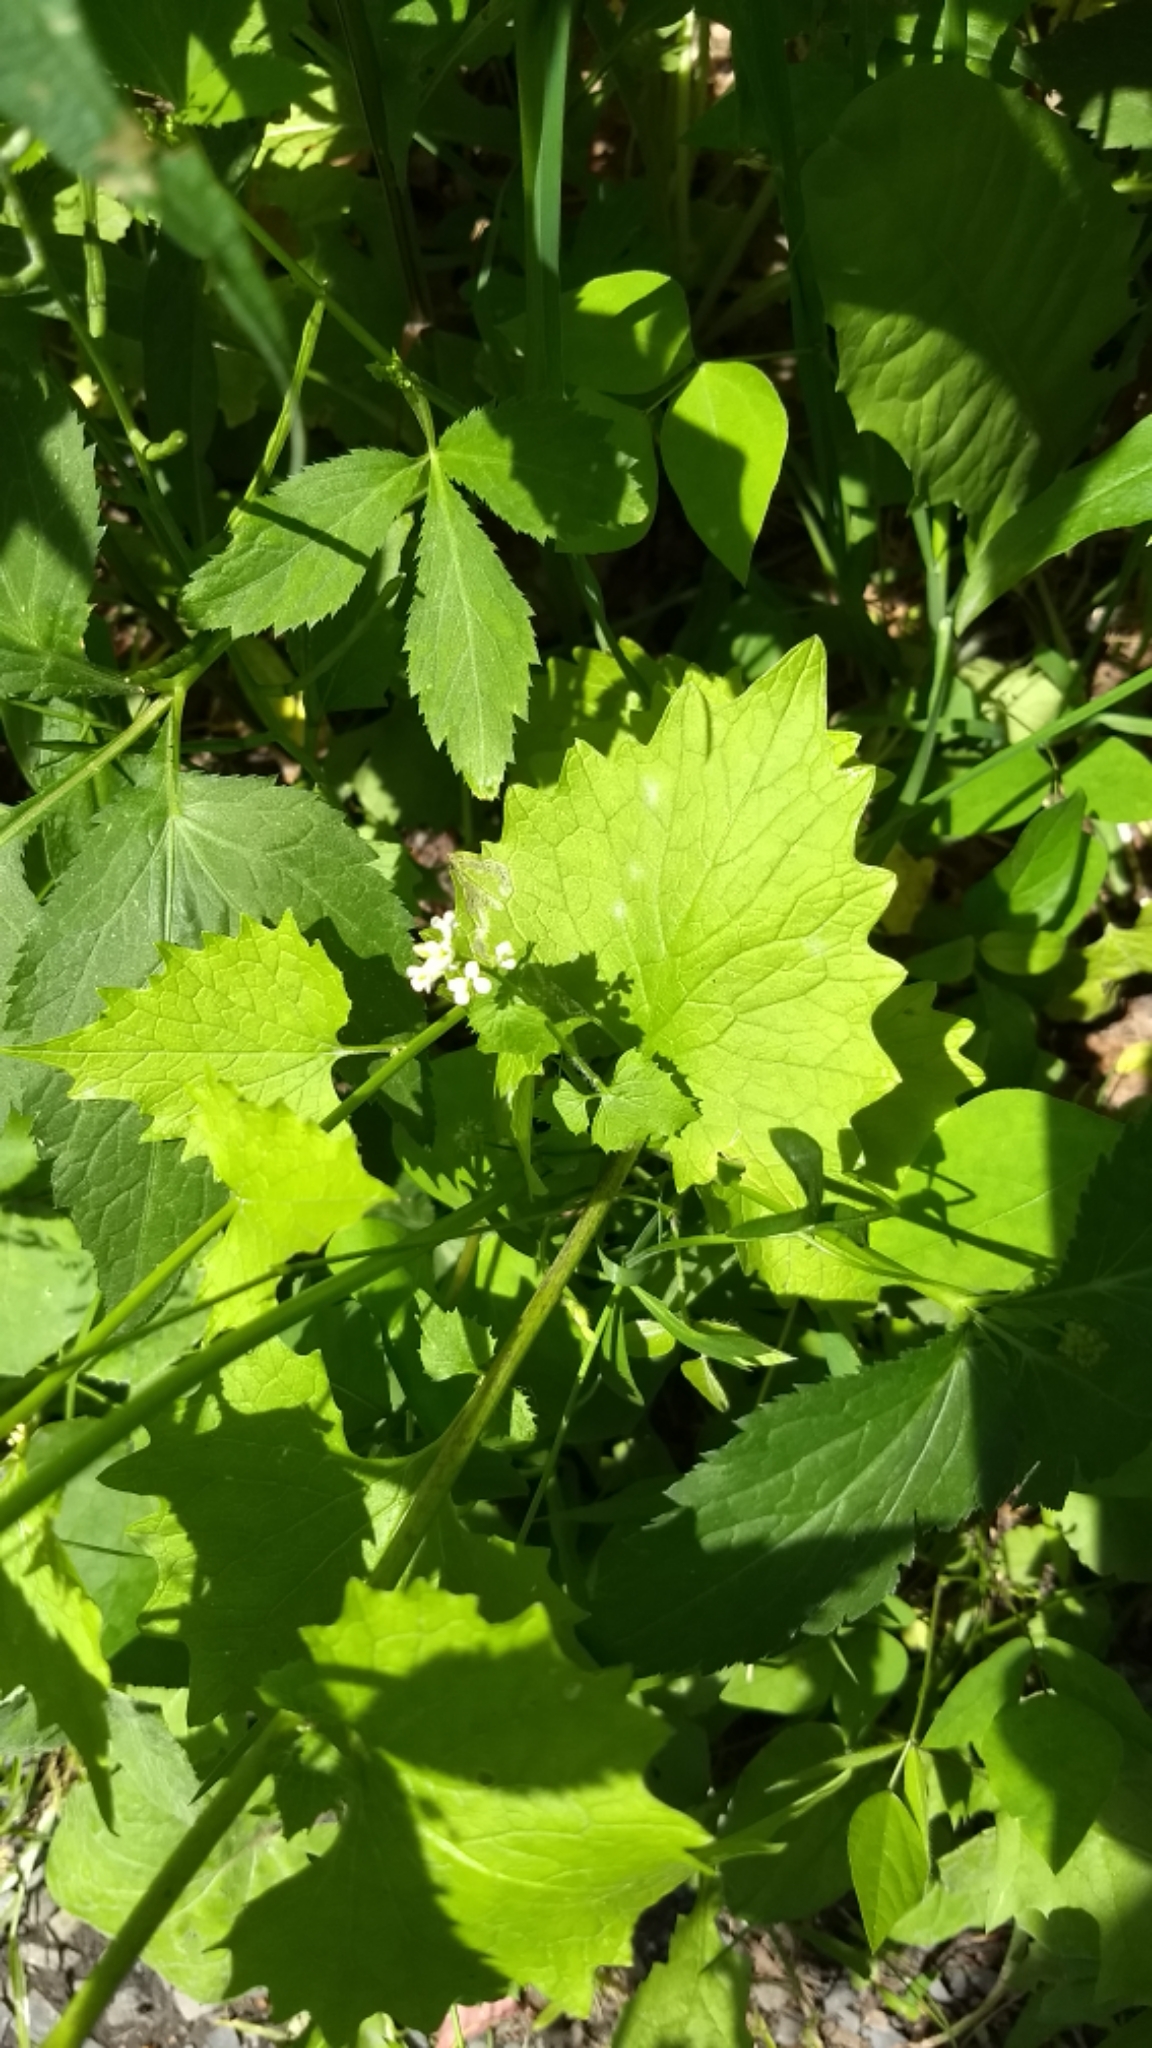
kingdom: Plantae
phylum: Tracheophyta
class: Magnoliopsida
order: Brassicales
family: Brassicaceae
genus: Alliaria
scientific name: Alliaria petiolata
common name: Garlic mustard
